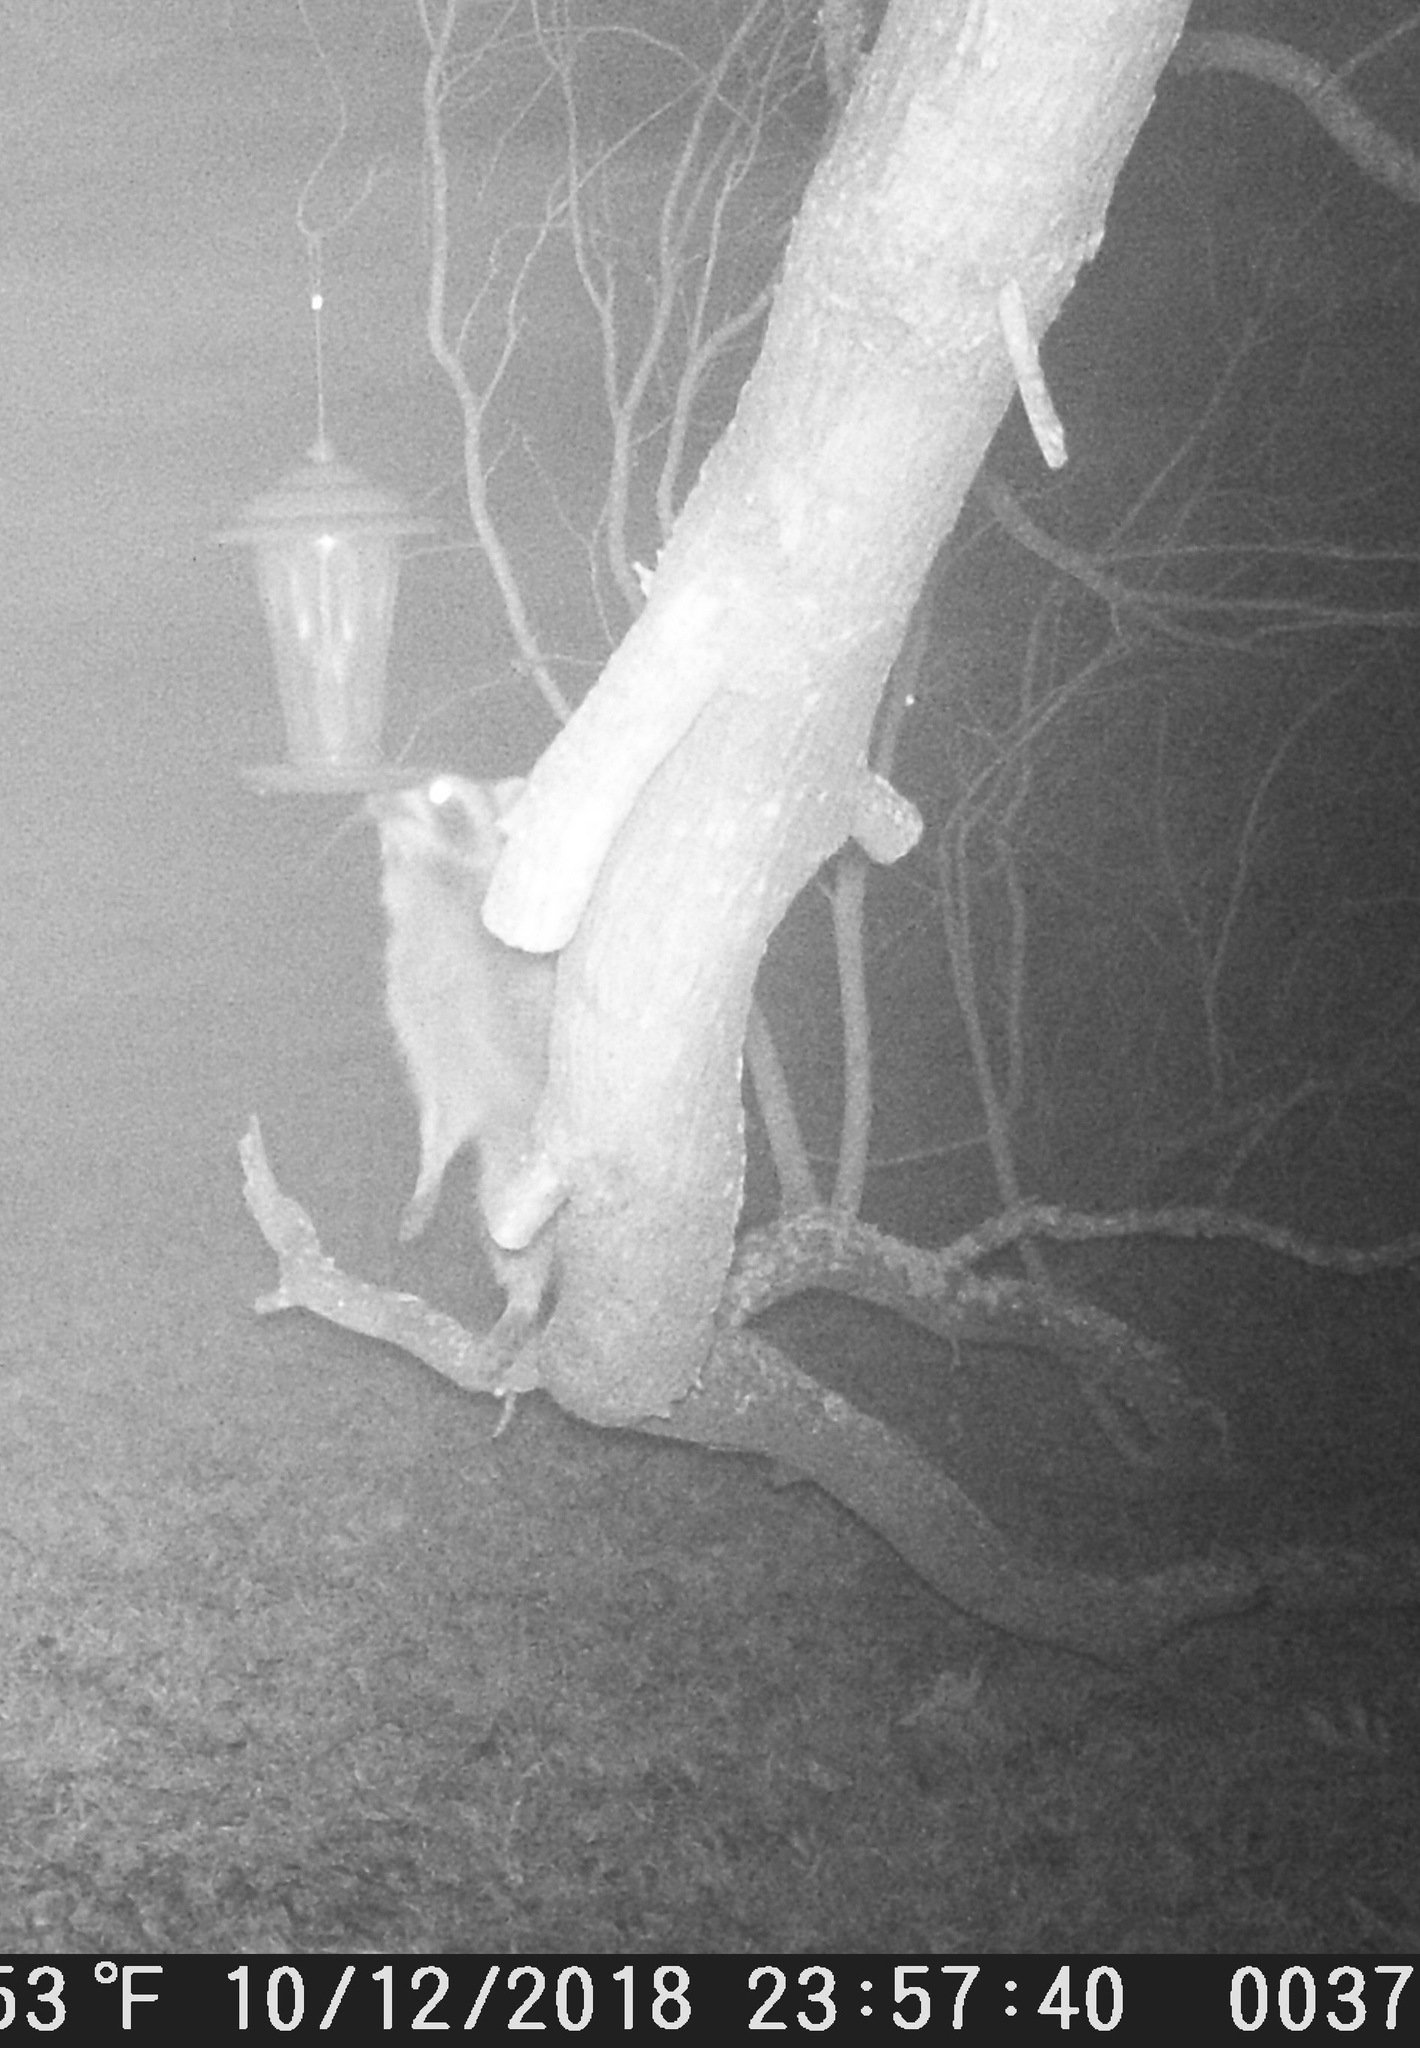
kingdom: Animalia
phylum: Chordata
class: Mammalia
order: Carnivora
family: Procyonidae
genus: Procyon
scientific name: Procyon lotor
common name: Raccoon
